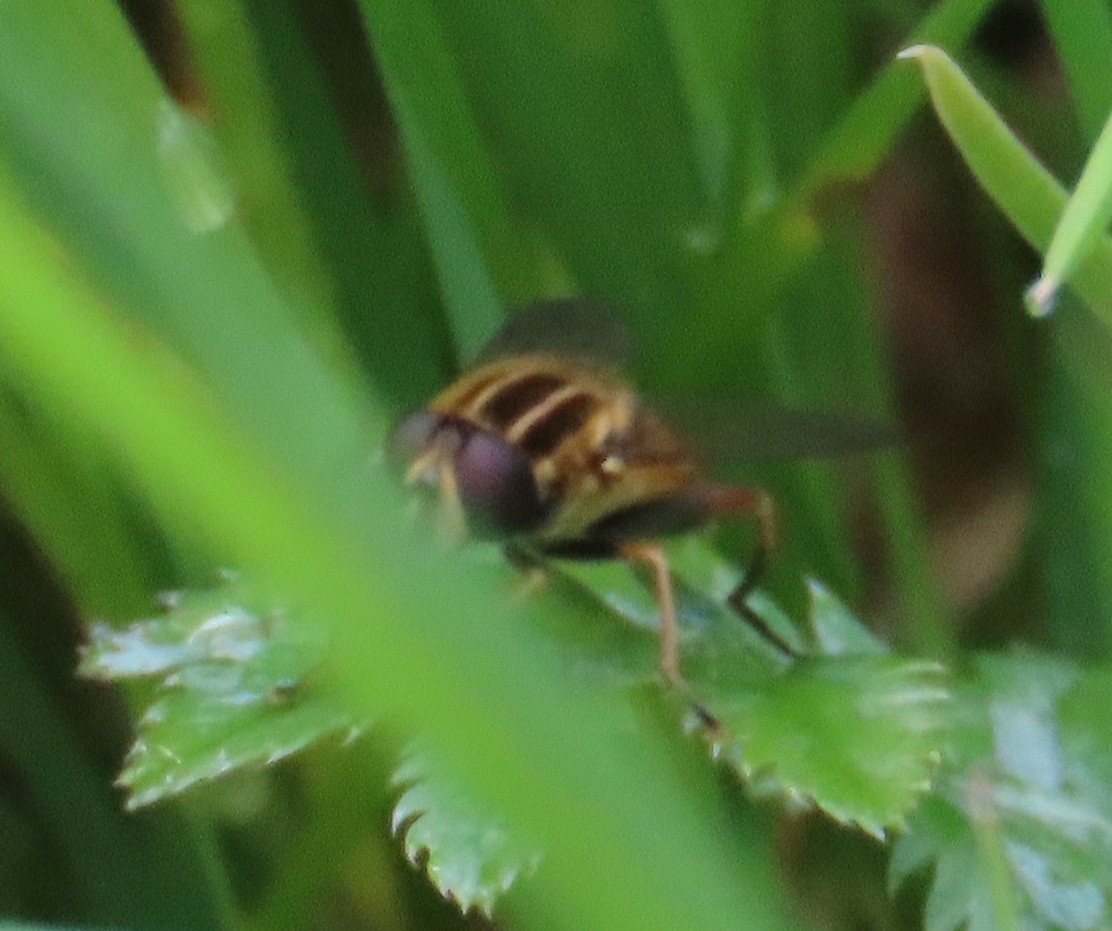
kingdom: Animalia
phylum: Arthropoda
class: Insecta
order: Diptera
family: Syrphidae
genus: Helophilus
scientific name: Helophilus pendulus
